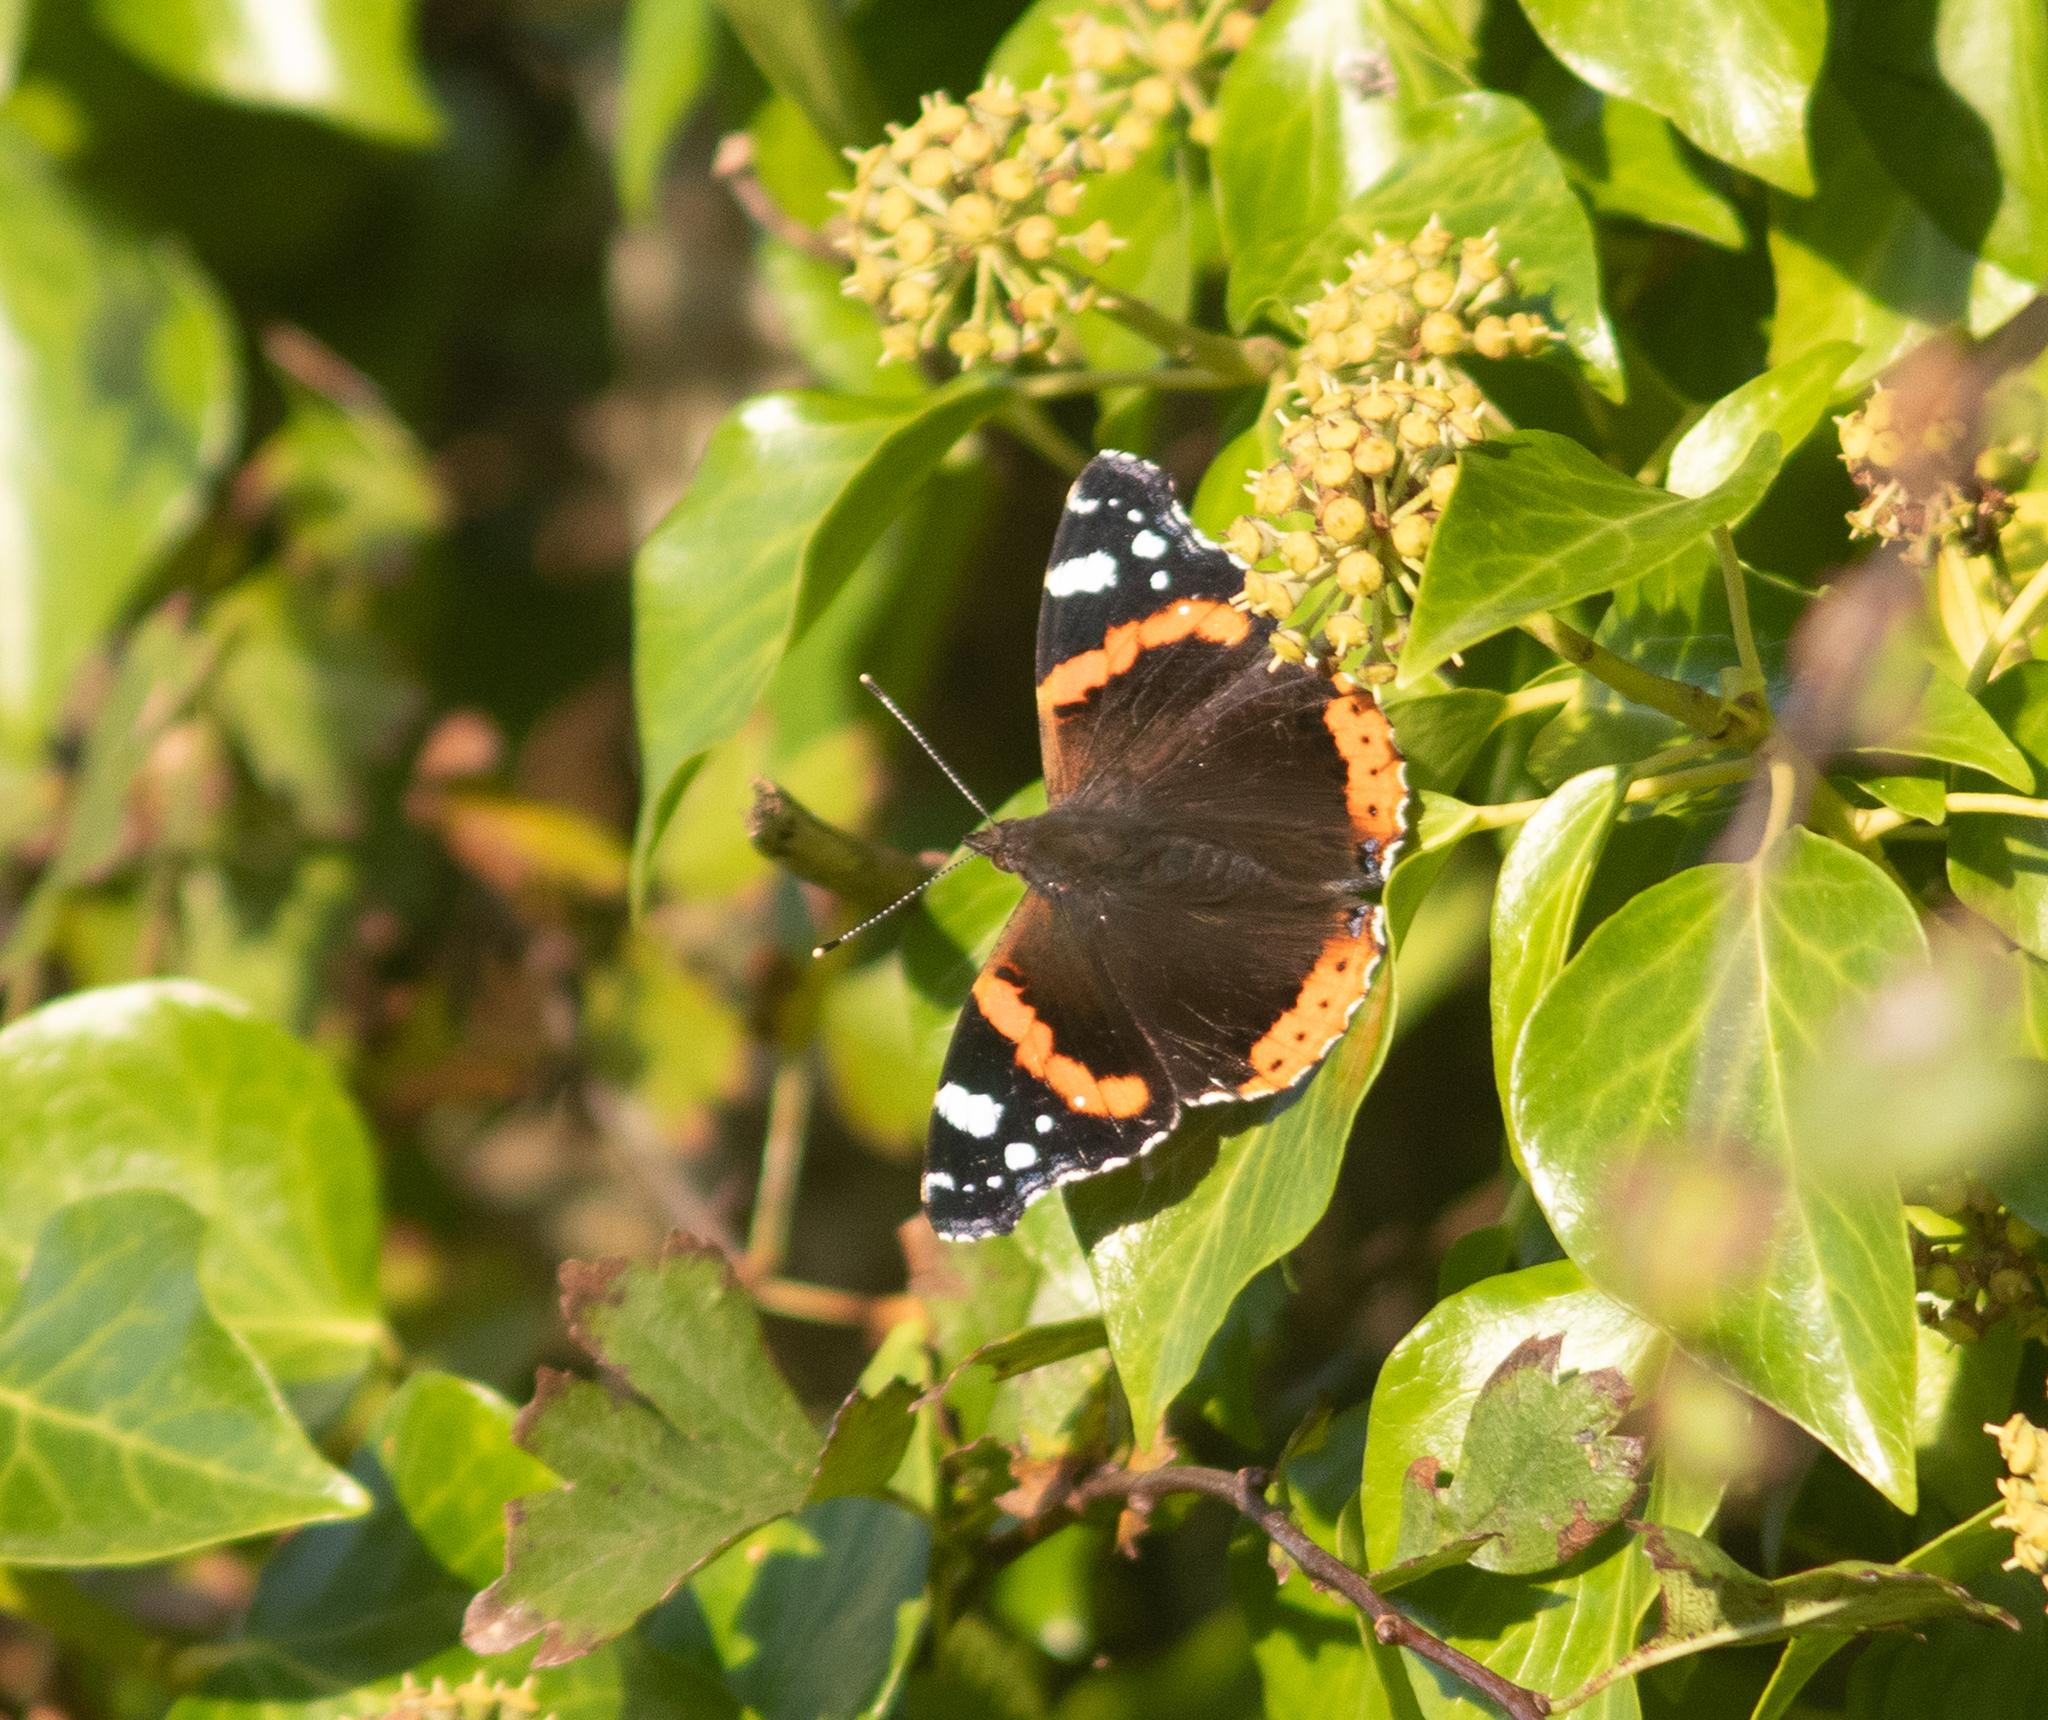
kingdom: Animalia
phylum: Arthropoda
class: Insecta
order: Lepidoptera
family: Nymphalidae
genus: Vanessa
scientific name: Vanessa atalanta
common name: Red admiral
